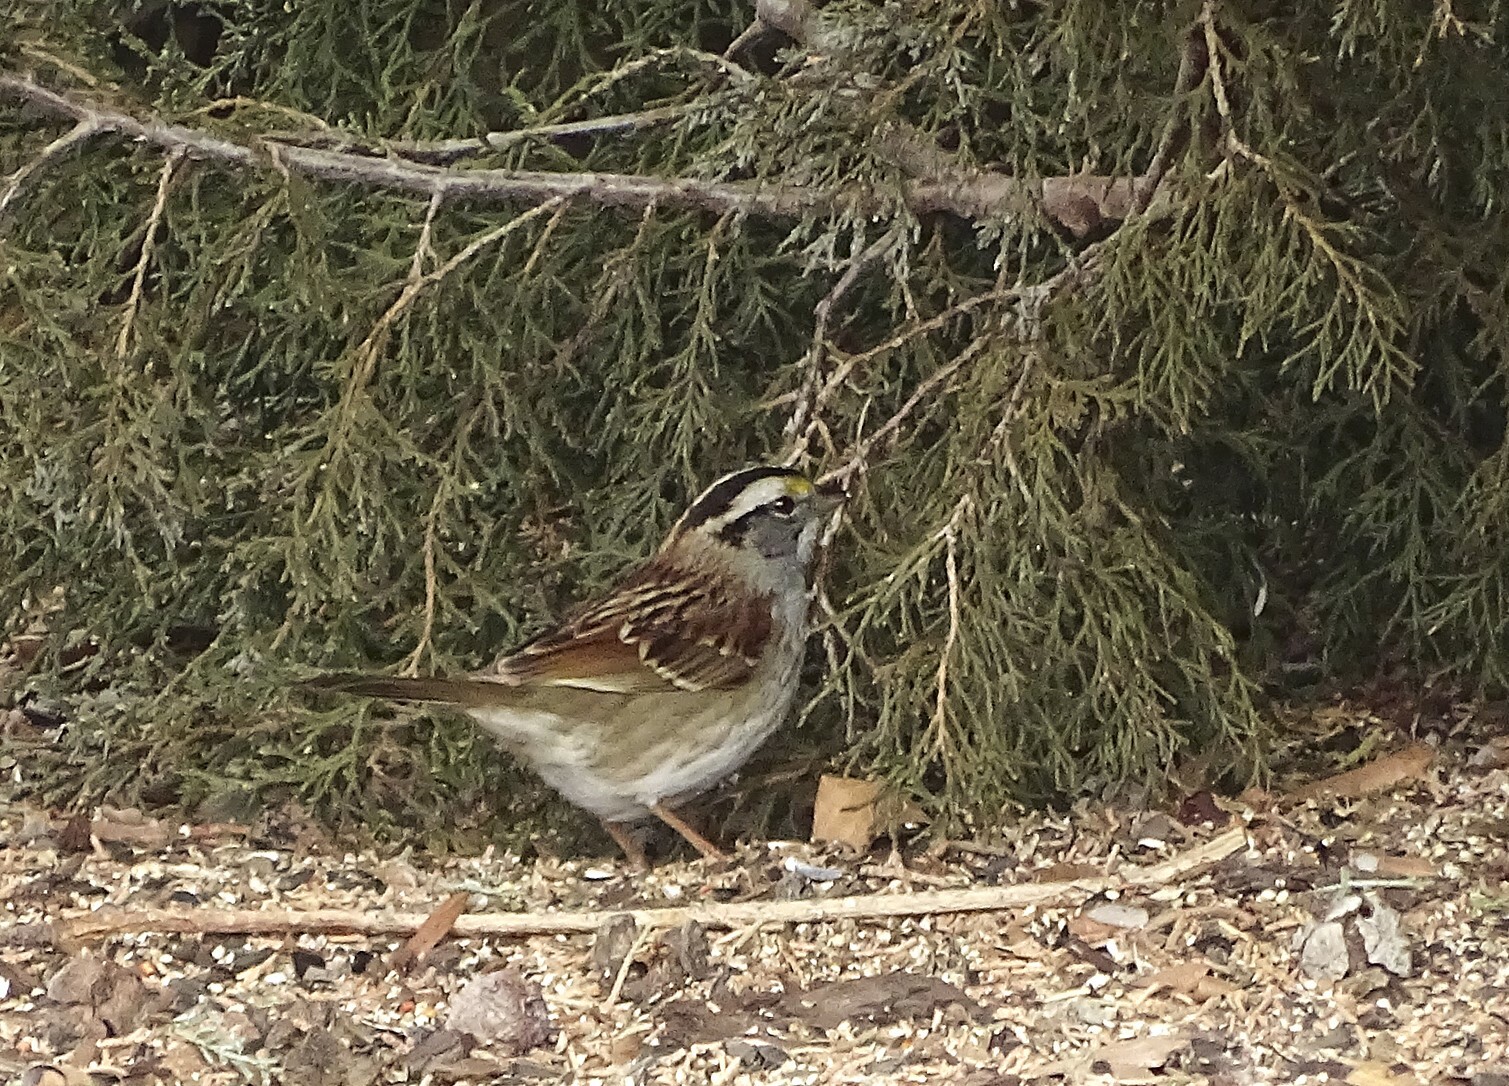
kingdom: Animalia
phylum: Chordata
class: Aves
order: Passeriformes
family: Passerellidae
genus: Zonotrichia
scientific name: Zonotrichia albicollis
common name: White-throated sparrow
